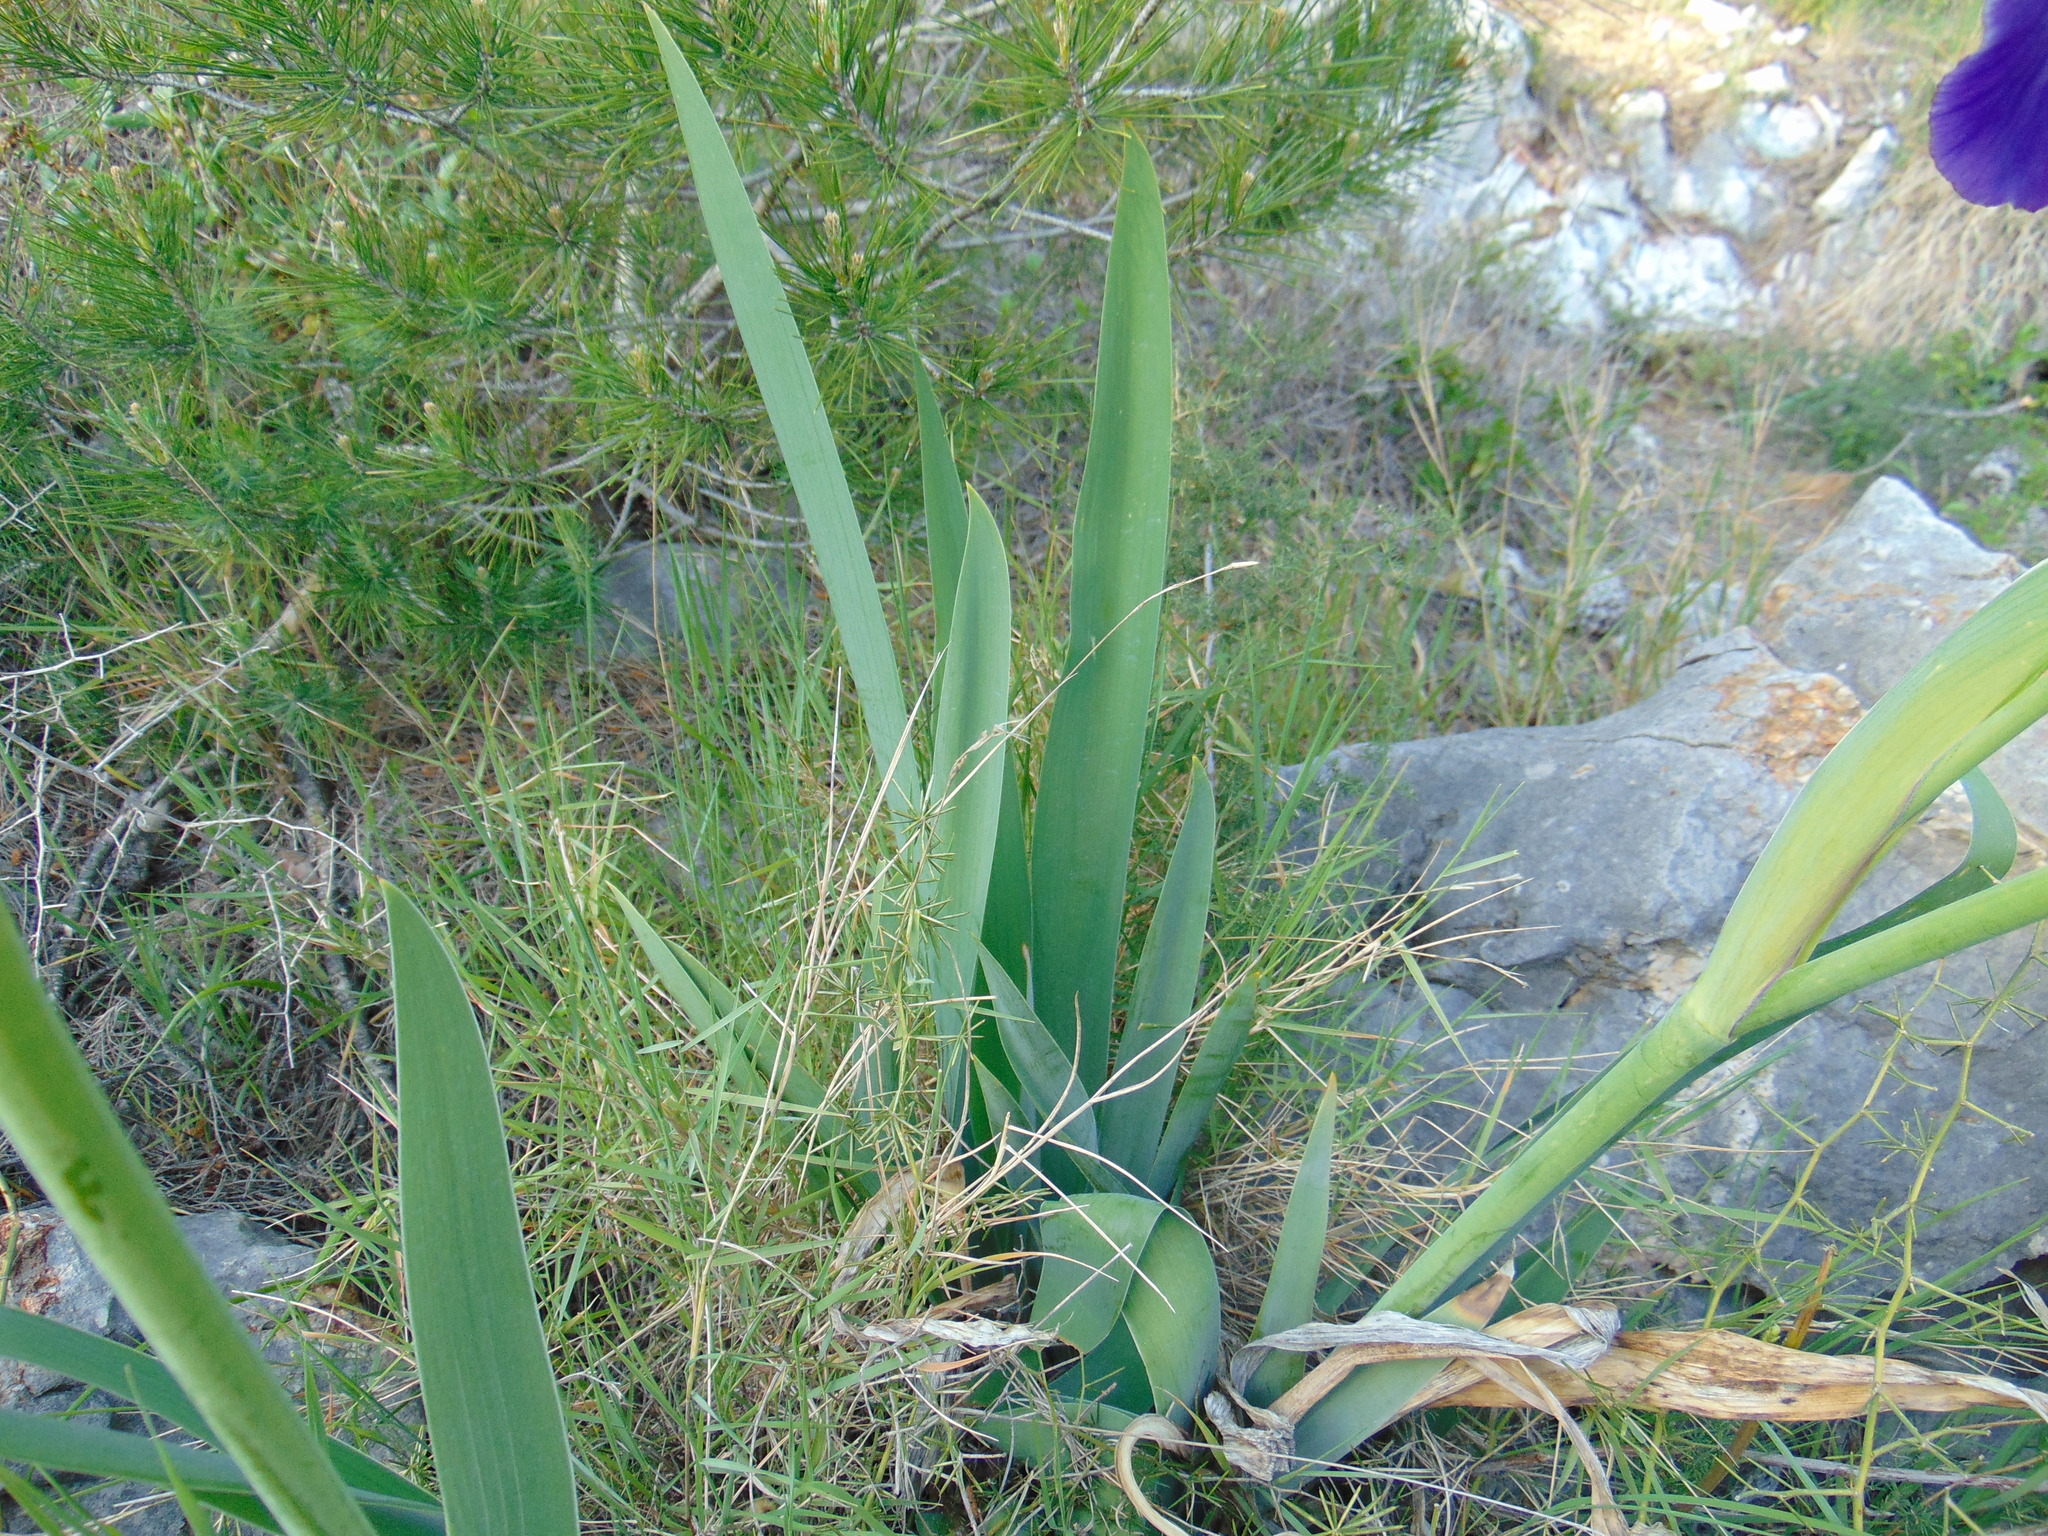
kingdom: Plantae
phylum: Tracheophyta
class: Liliopsida
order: Asparagales
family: Iridaceae
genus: Iris
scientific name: Iris germanica
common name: German iris
